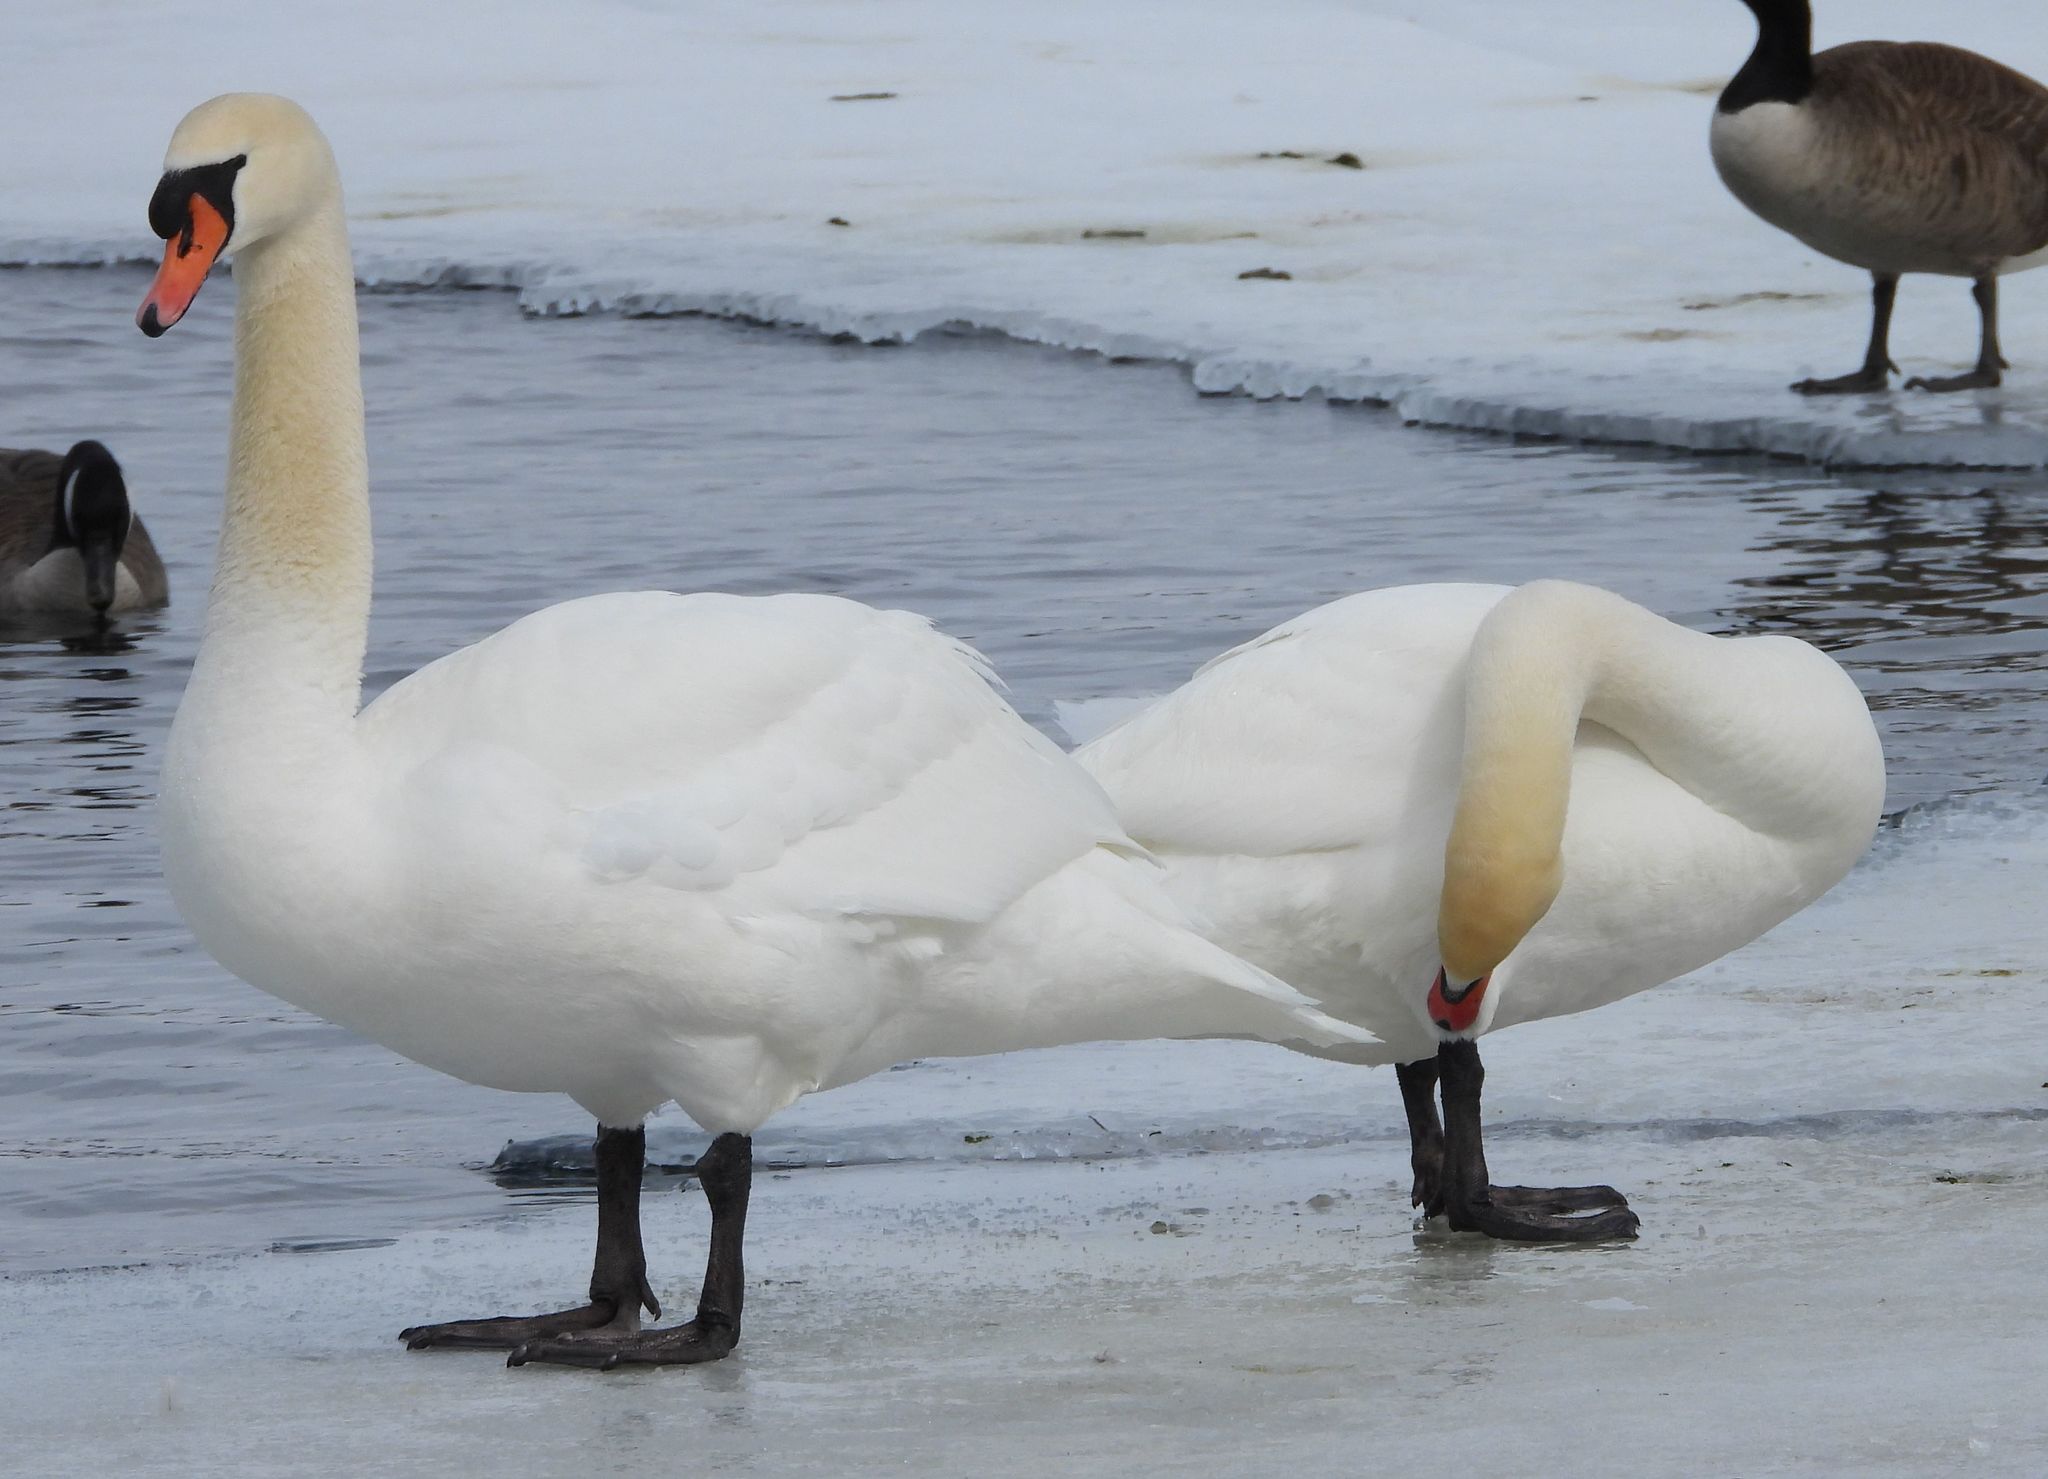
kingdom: Animalia
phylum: Chordata
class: Aves
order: Anseriformes
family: Anatidae
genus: Cygnus
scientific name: Cygnus olor
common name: Mute swan
